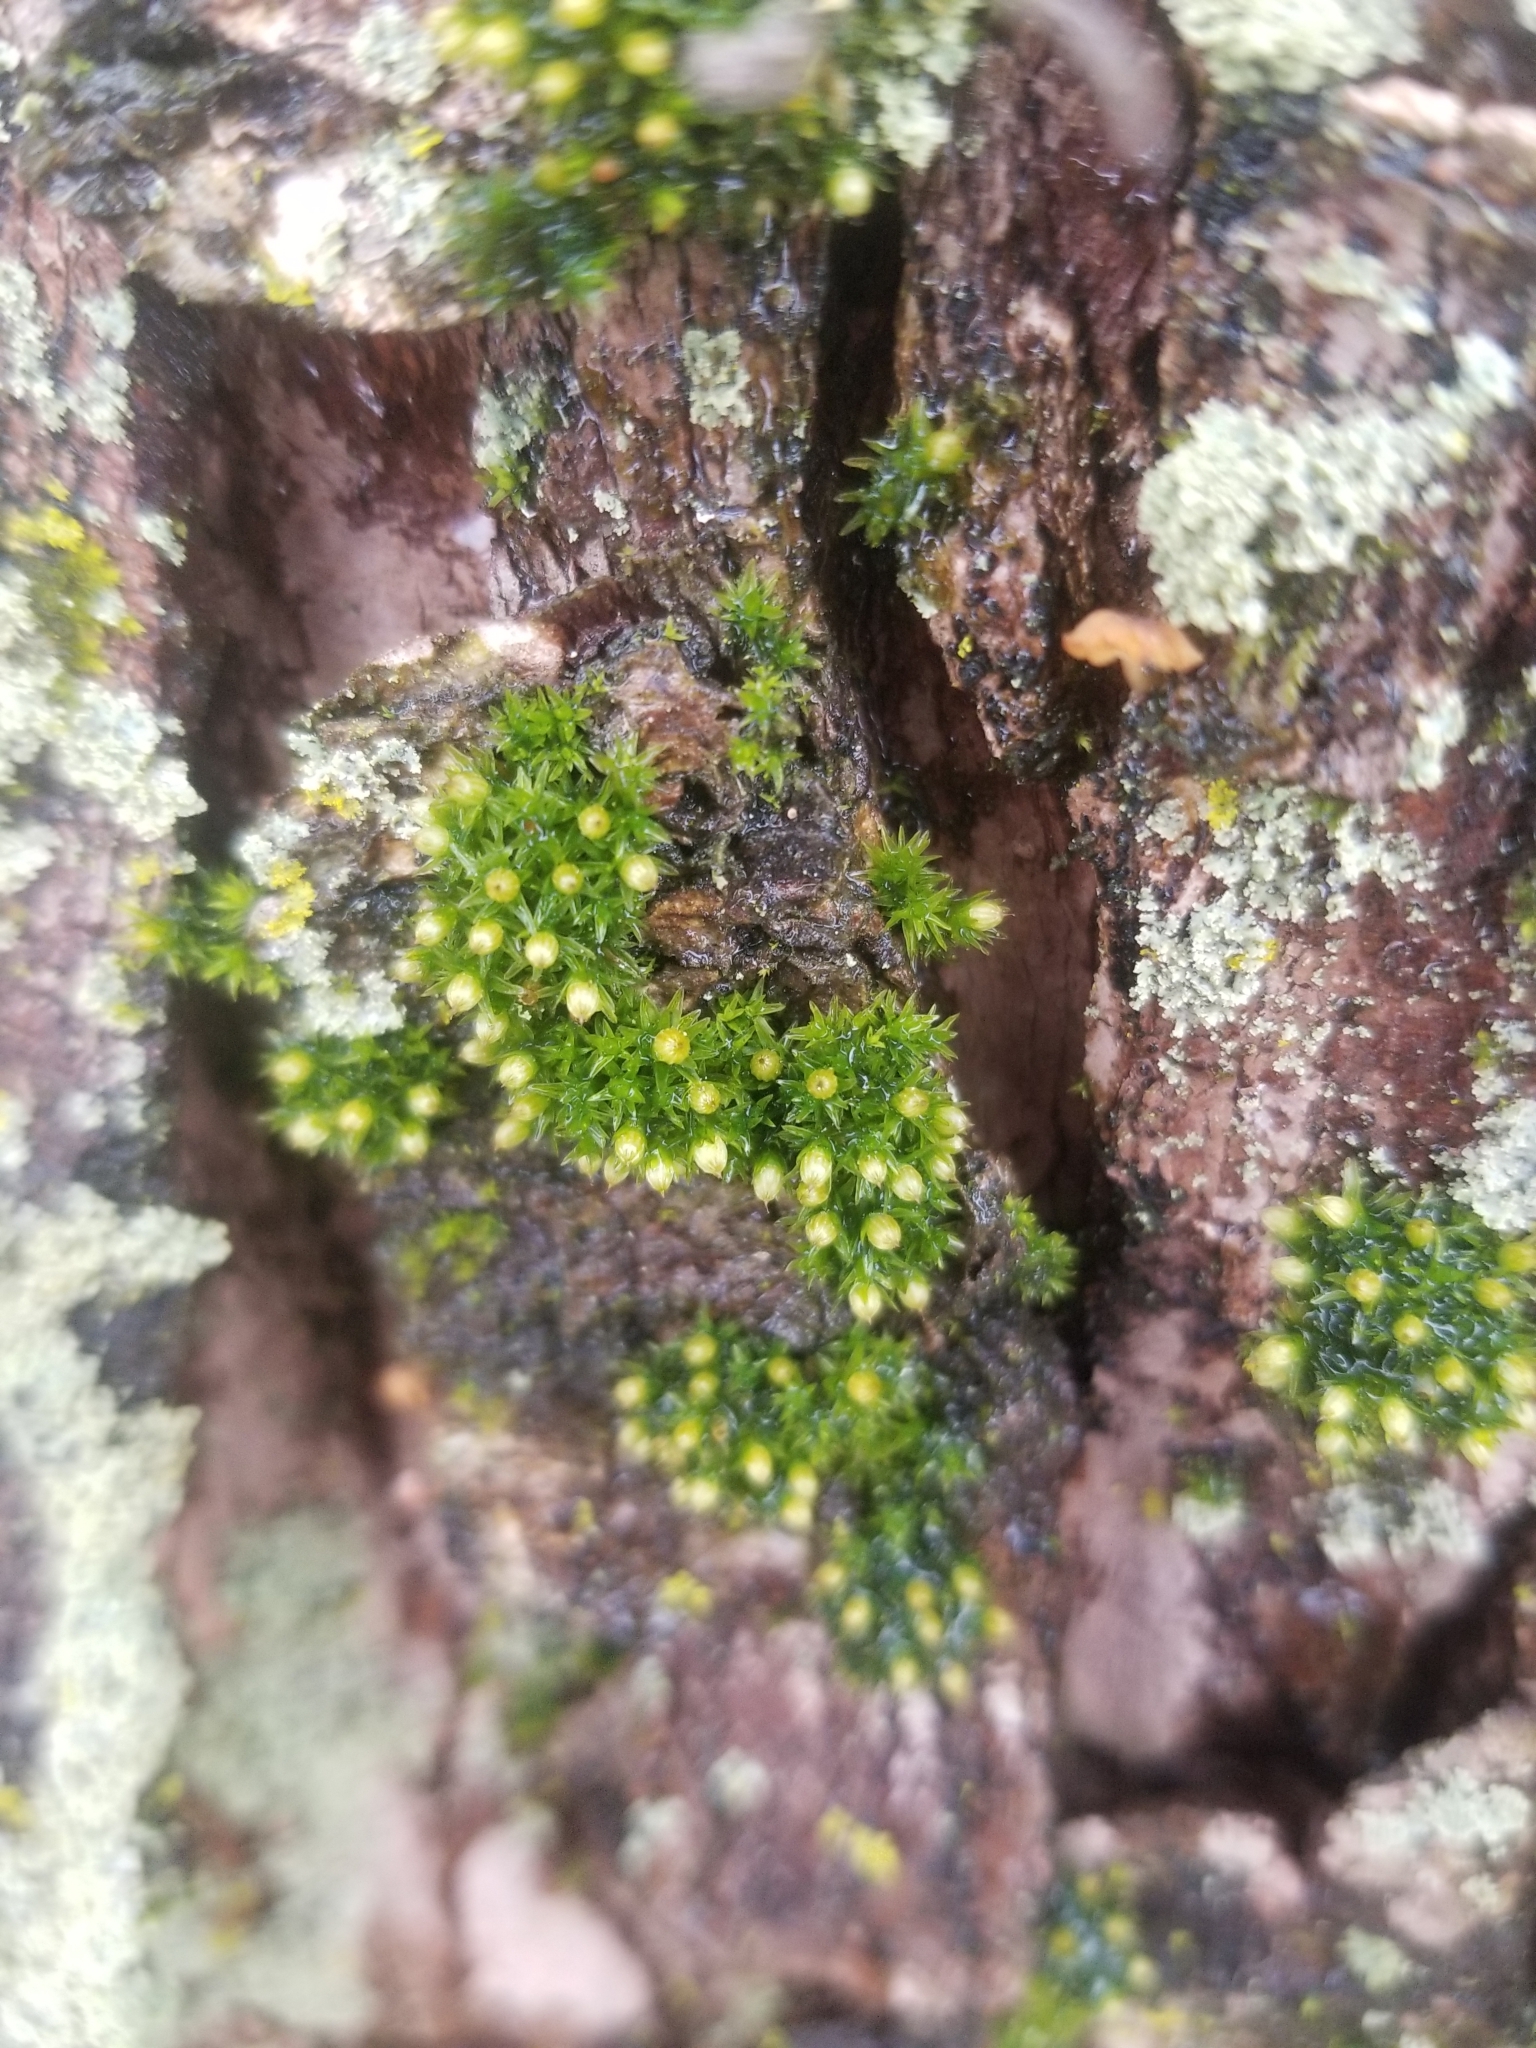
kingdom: Plantae
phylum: Bryophyta
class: Bryopsida
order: Orthotrichales
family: Orthotrichaceae
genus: Orthotrichum
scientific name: Orthotrichum
